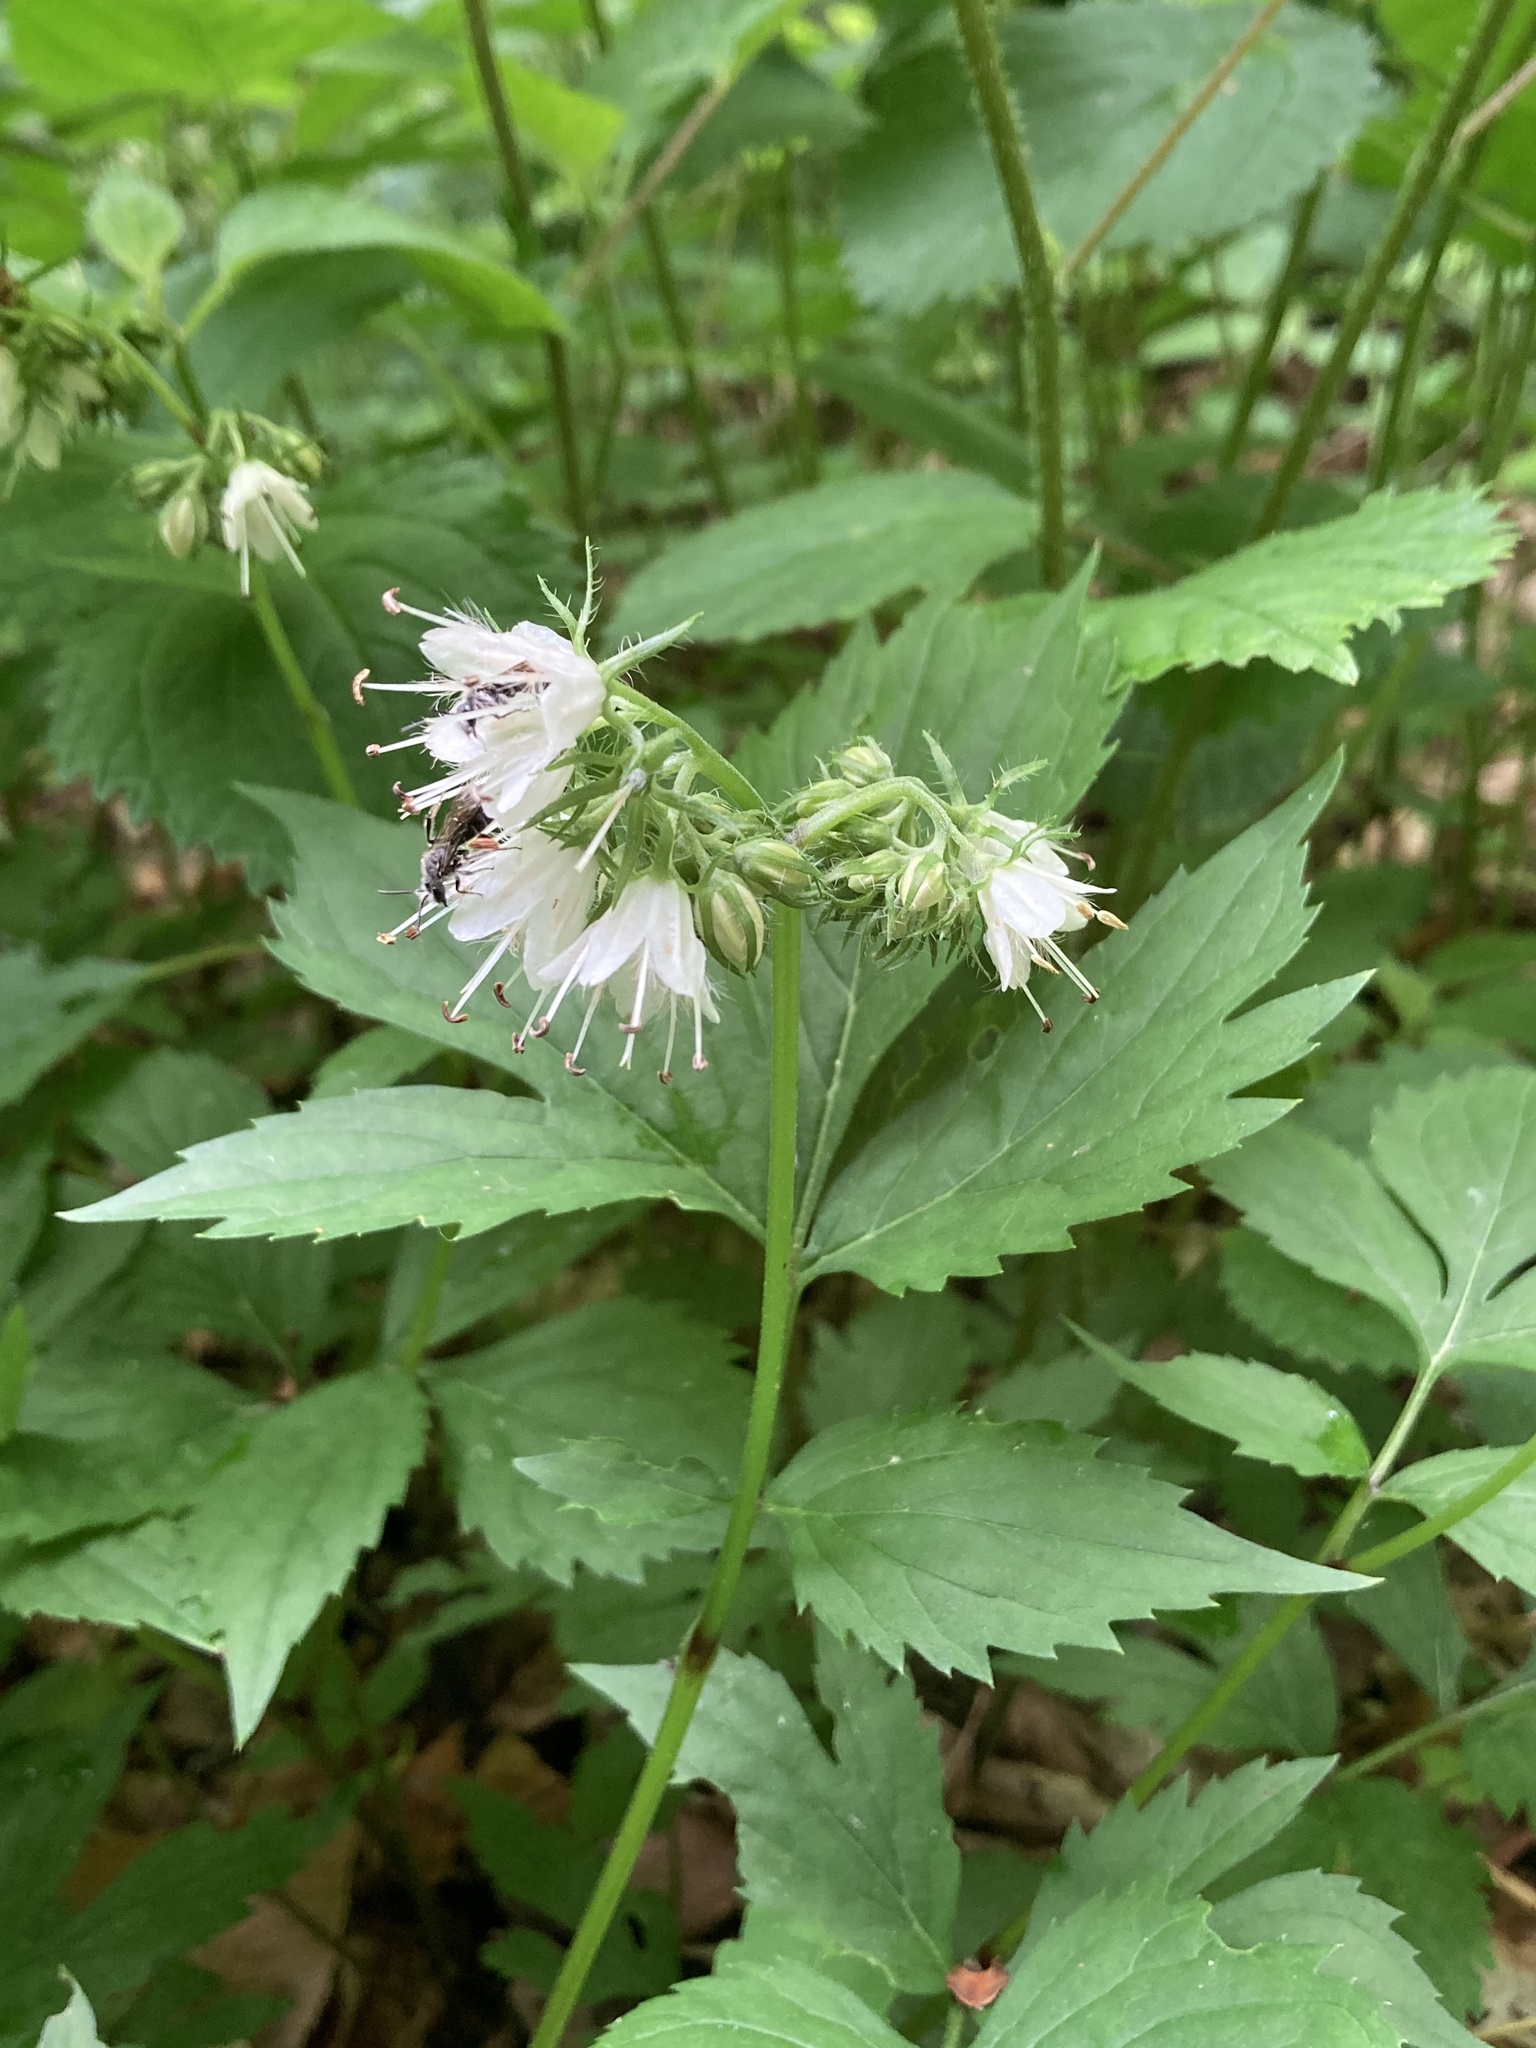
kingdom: Plantae
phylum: Tracheophyta
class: Magnoliopsida
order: Boraginales
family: Hydrophyllaceae
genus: Hydrophyllum
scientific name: Hydrophyllum virginianum
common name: Virginia waterleaf
